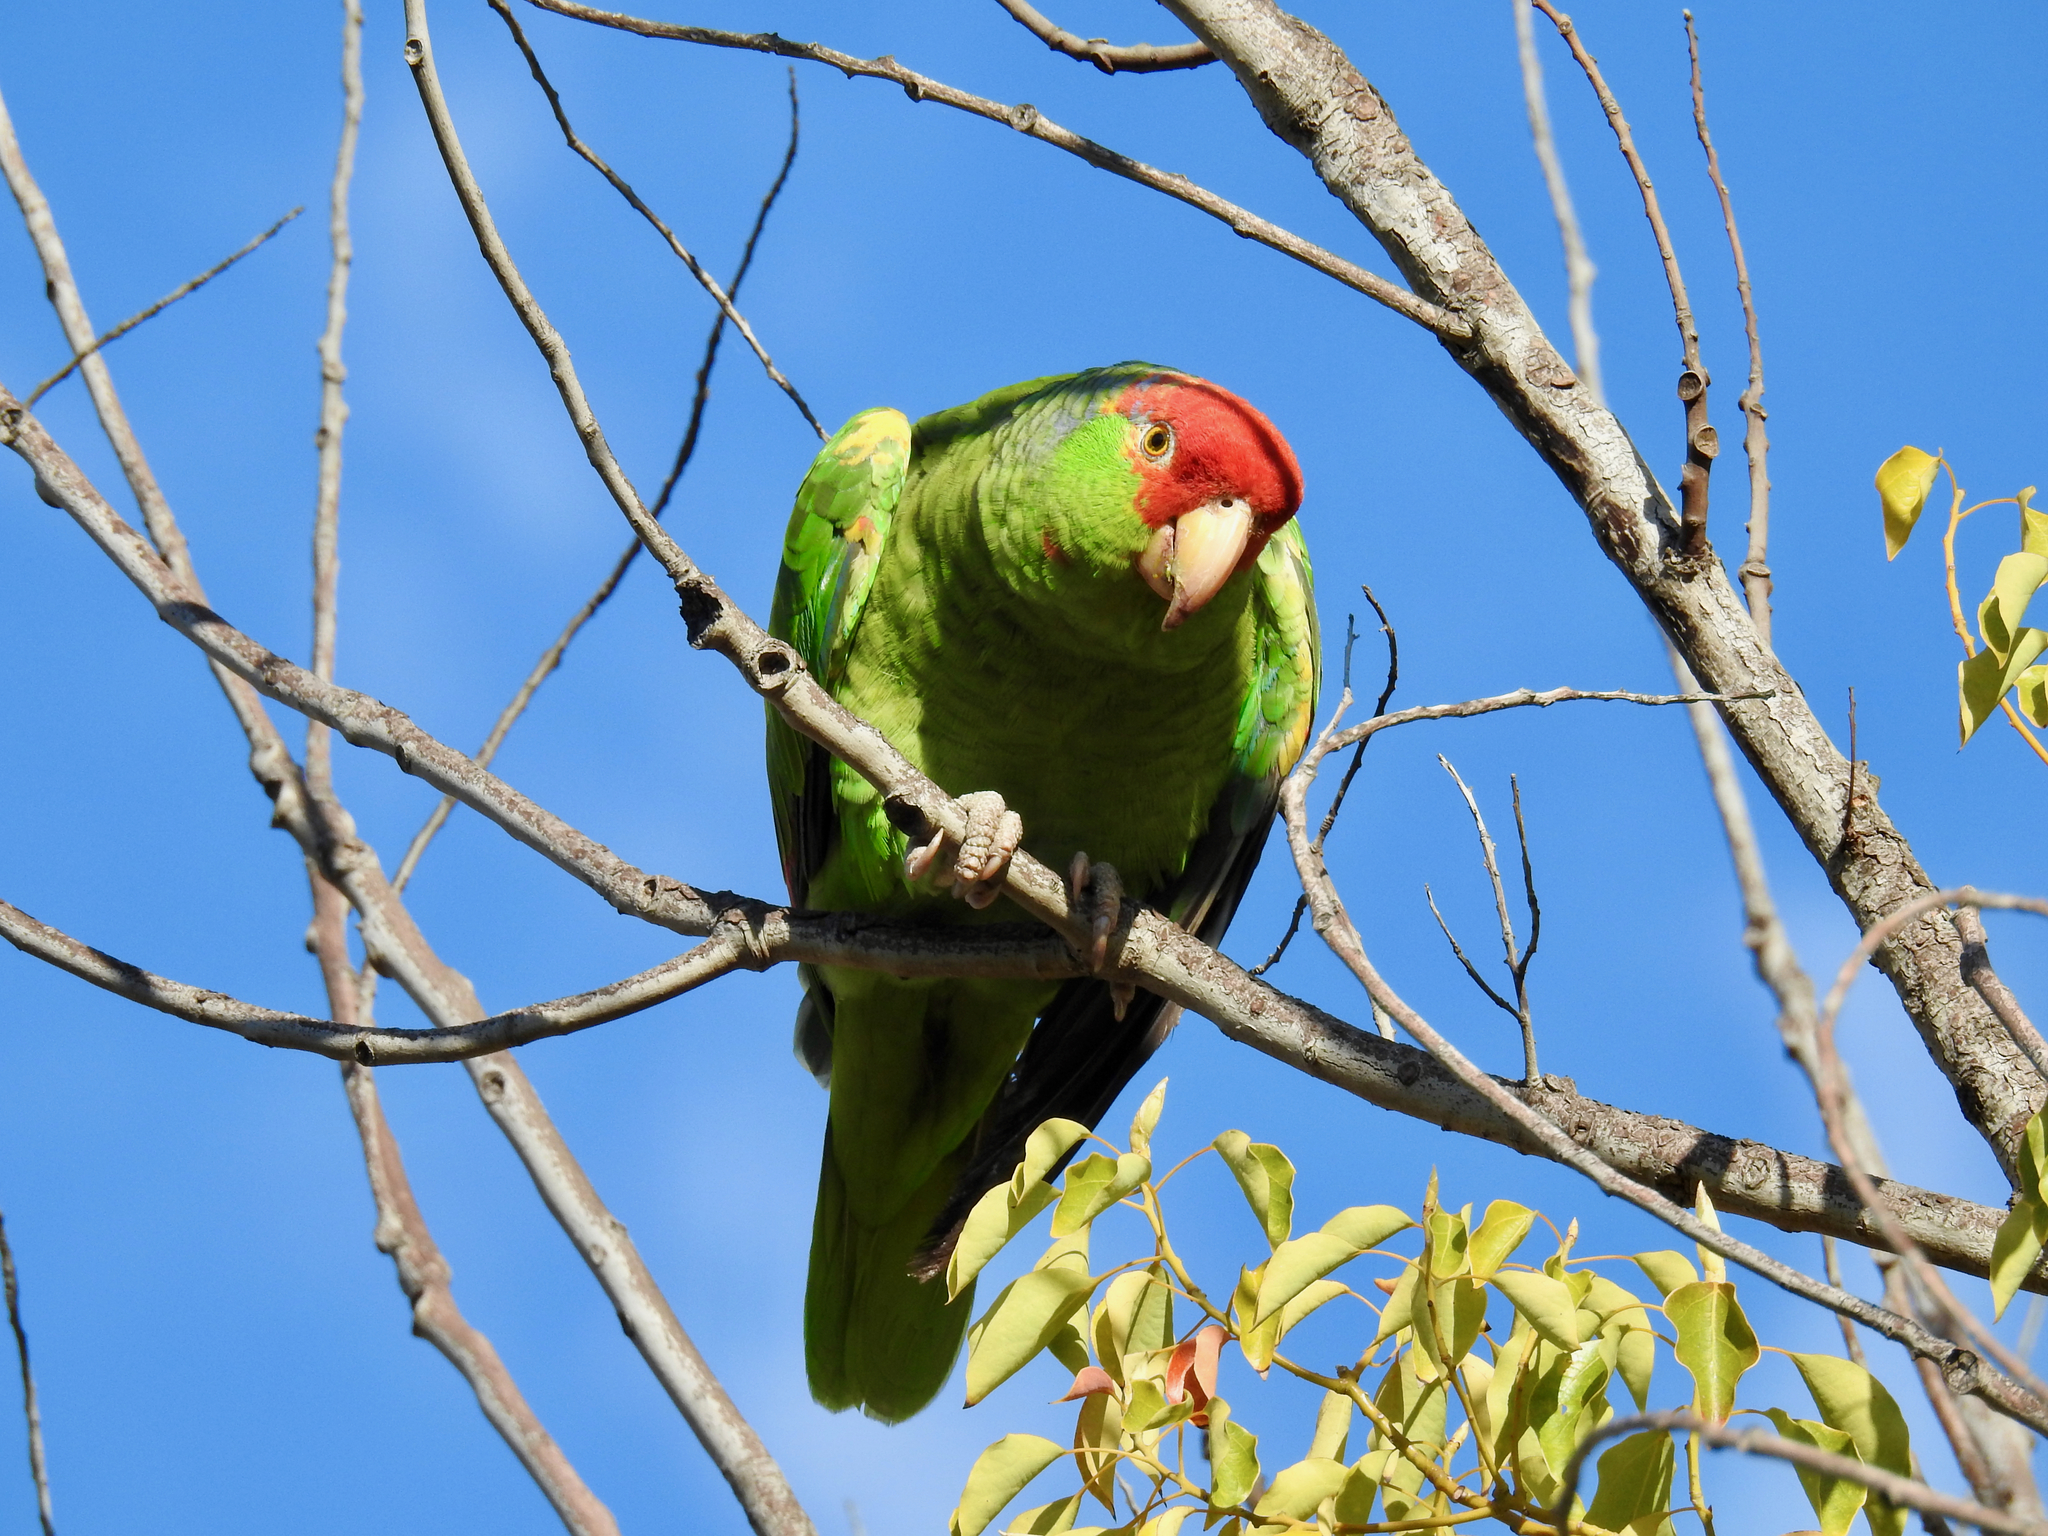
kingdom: Animalia
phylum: Chordata
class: Aves
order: Psittaciformes
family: Psittacidae
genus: Amazona
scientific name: Amazona viridigenalis
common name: Red-crowned amazon
